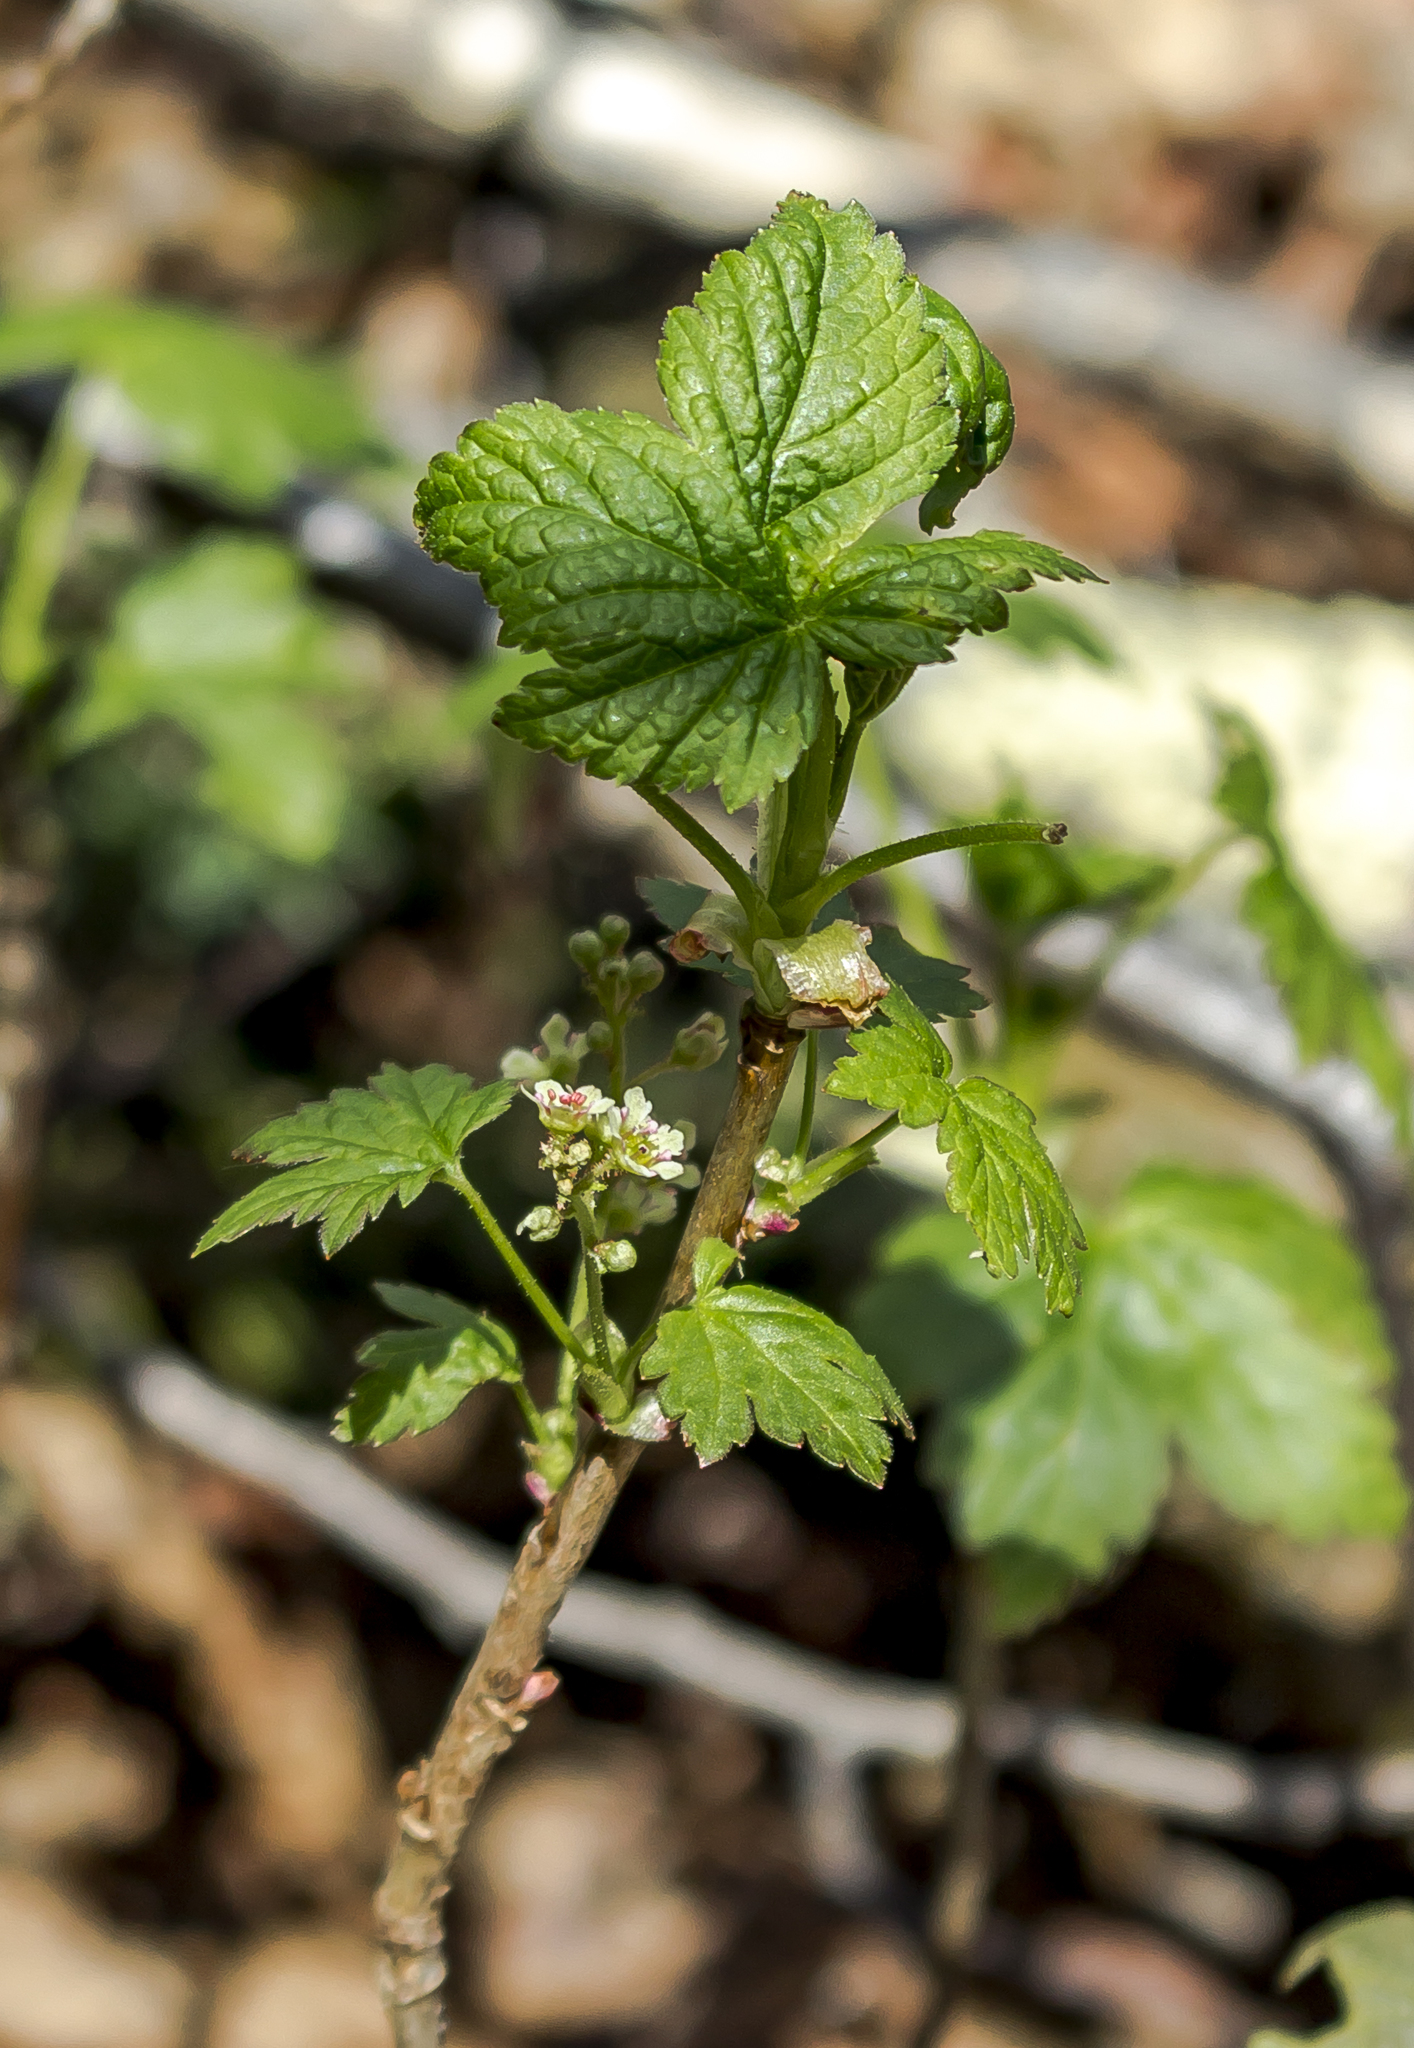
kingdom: Plantae
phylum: Tracheophyta
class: Magnoliopsida
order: Saxifragales
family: Grossulariaceae
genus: Ribes
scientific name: Ribes glandulosum
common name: Skunk currant
